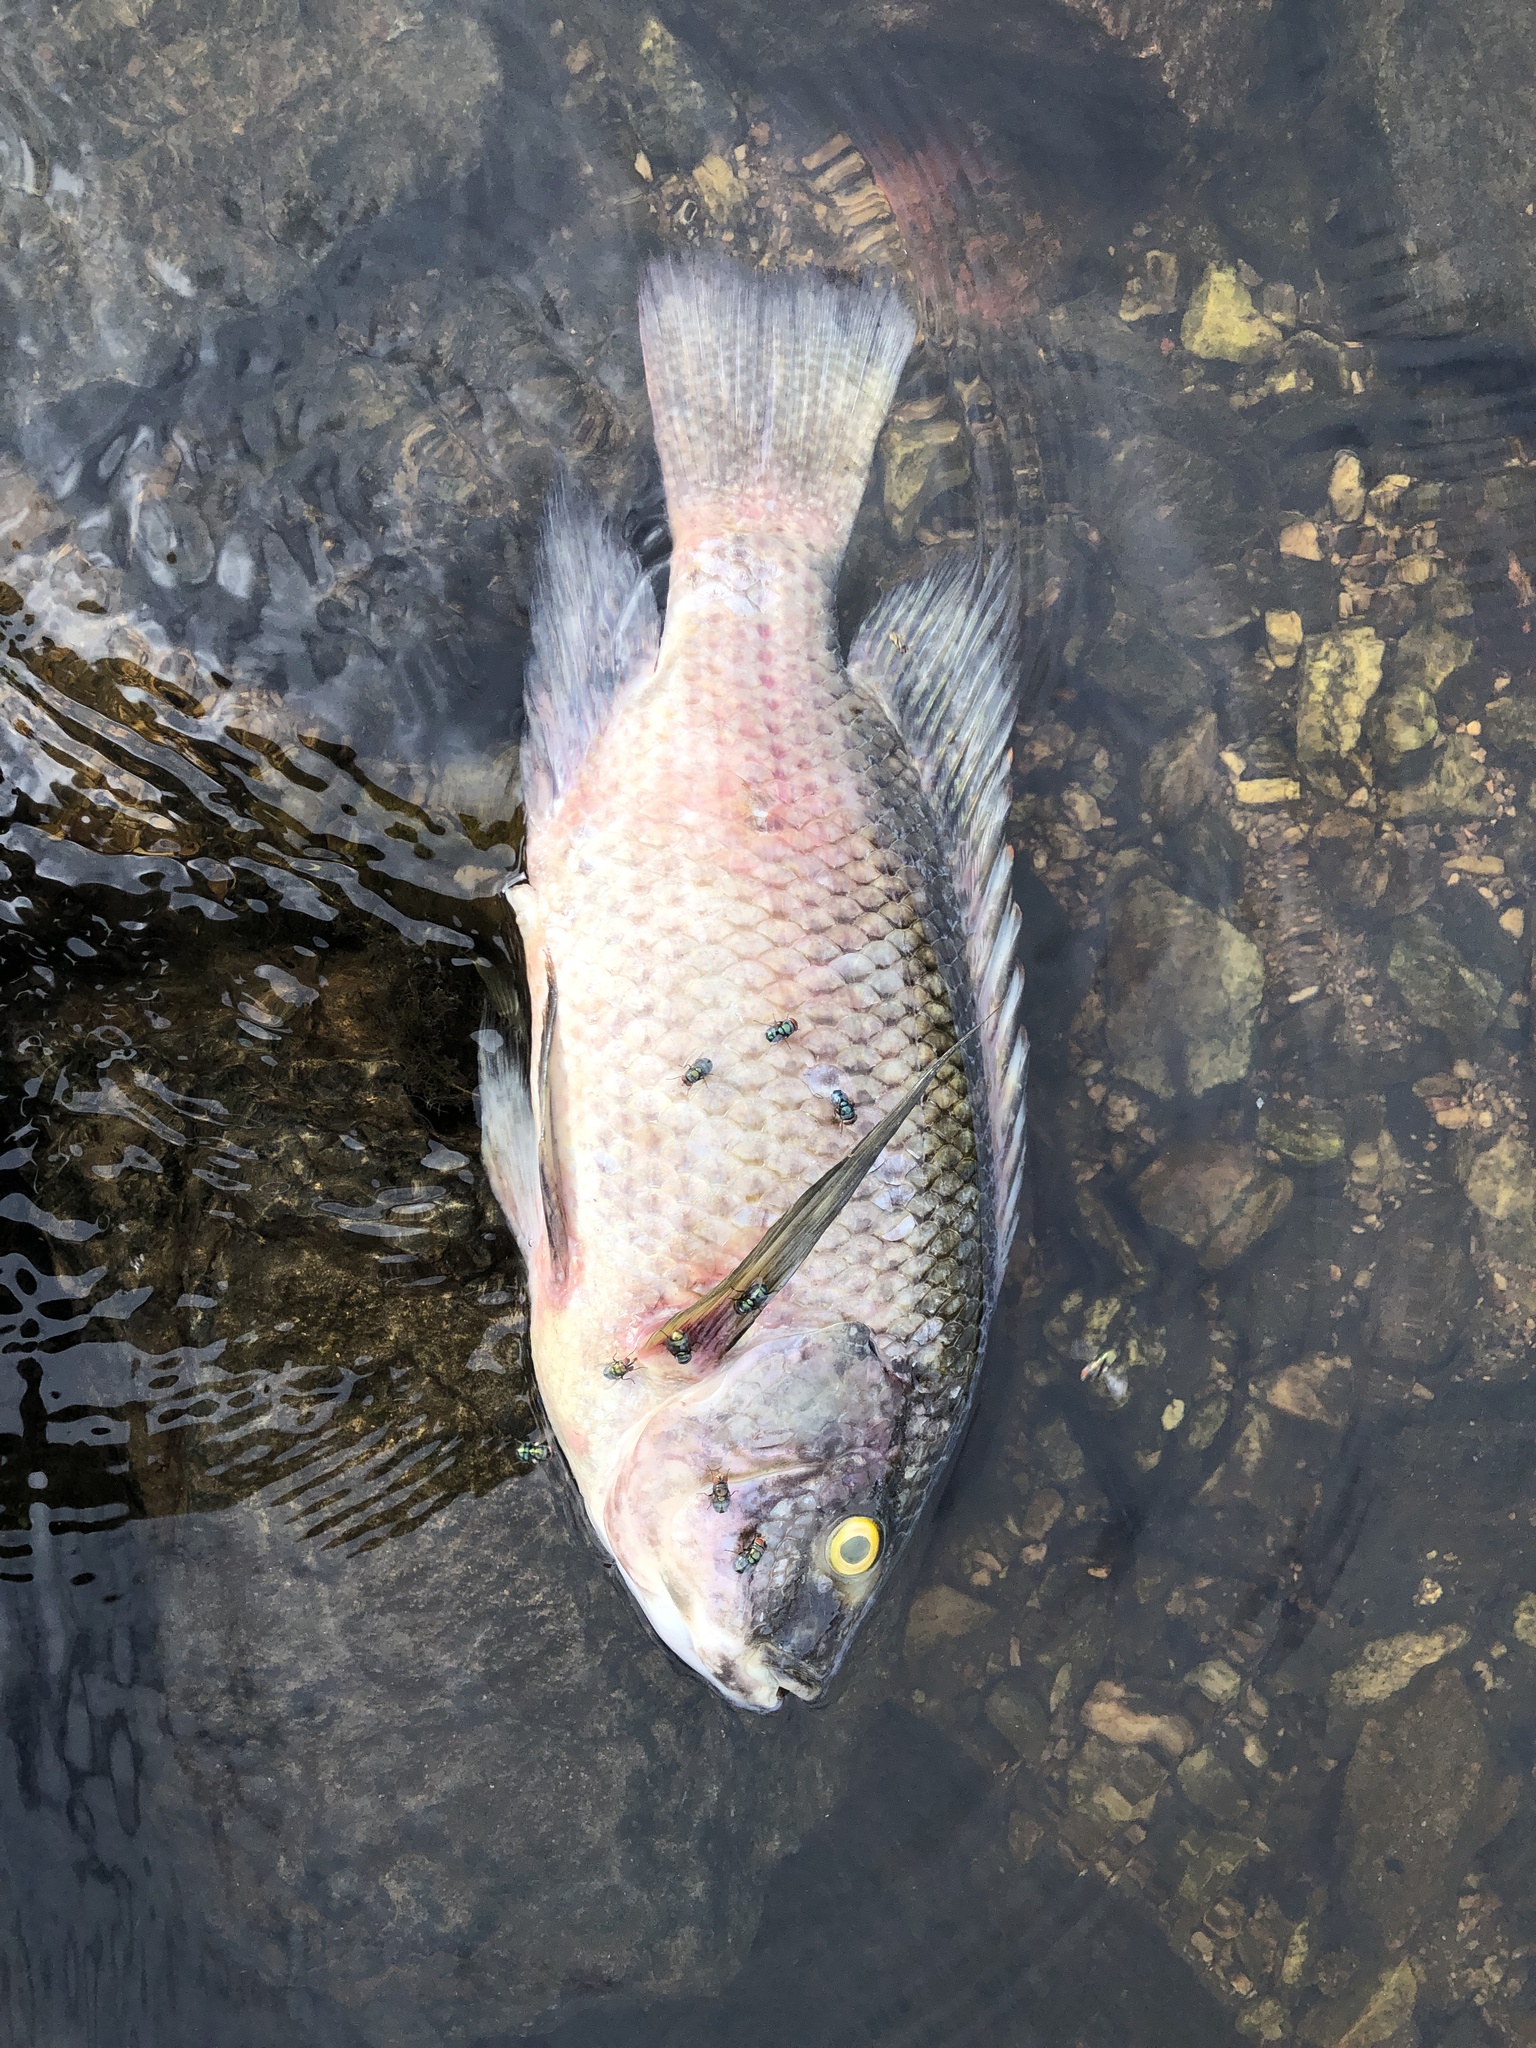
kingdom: Animalia
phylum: Chordata
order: Perciformes
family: Cichlidae
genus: Oreochromis
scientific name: Oreochromis mossambicus
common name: Mozambique tilapia
